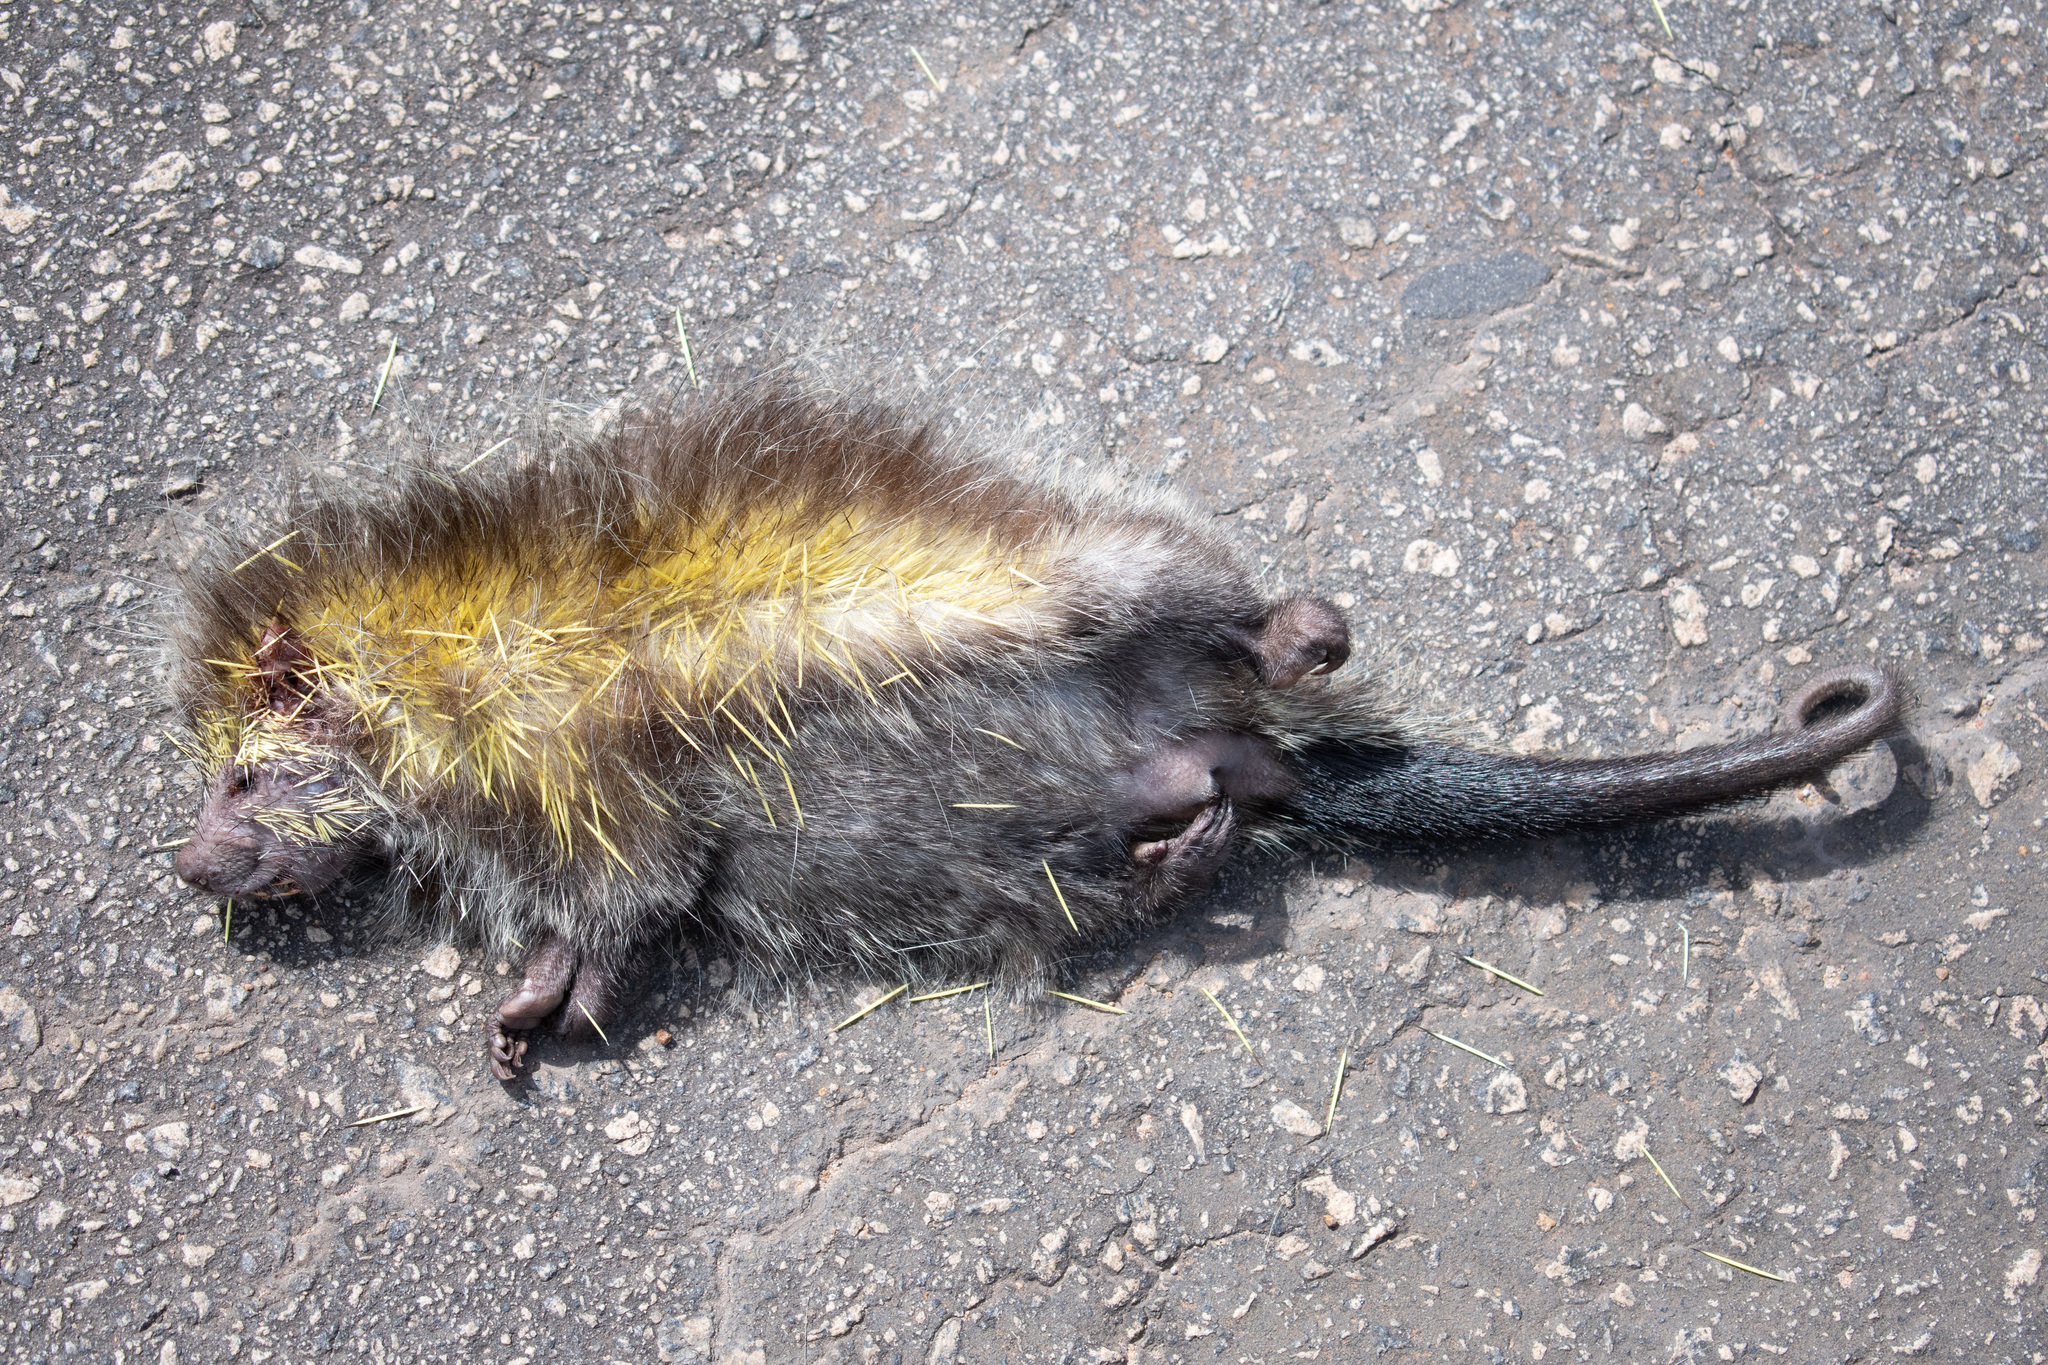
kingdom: Animalia
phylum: Chordata
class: Mammalia
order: Rodentia
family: Erethizontidae
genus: Sphiggurus
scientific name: Sphiggurus melanurus
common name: Black-tailed hairy dwarf porcupine
